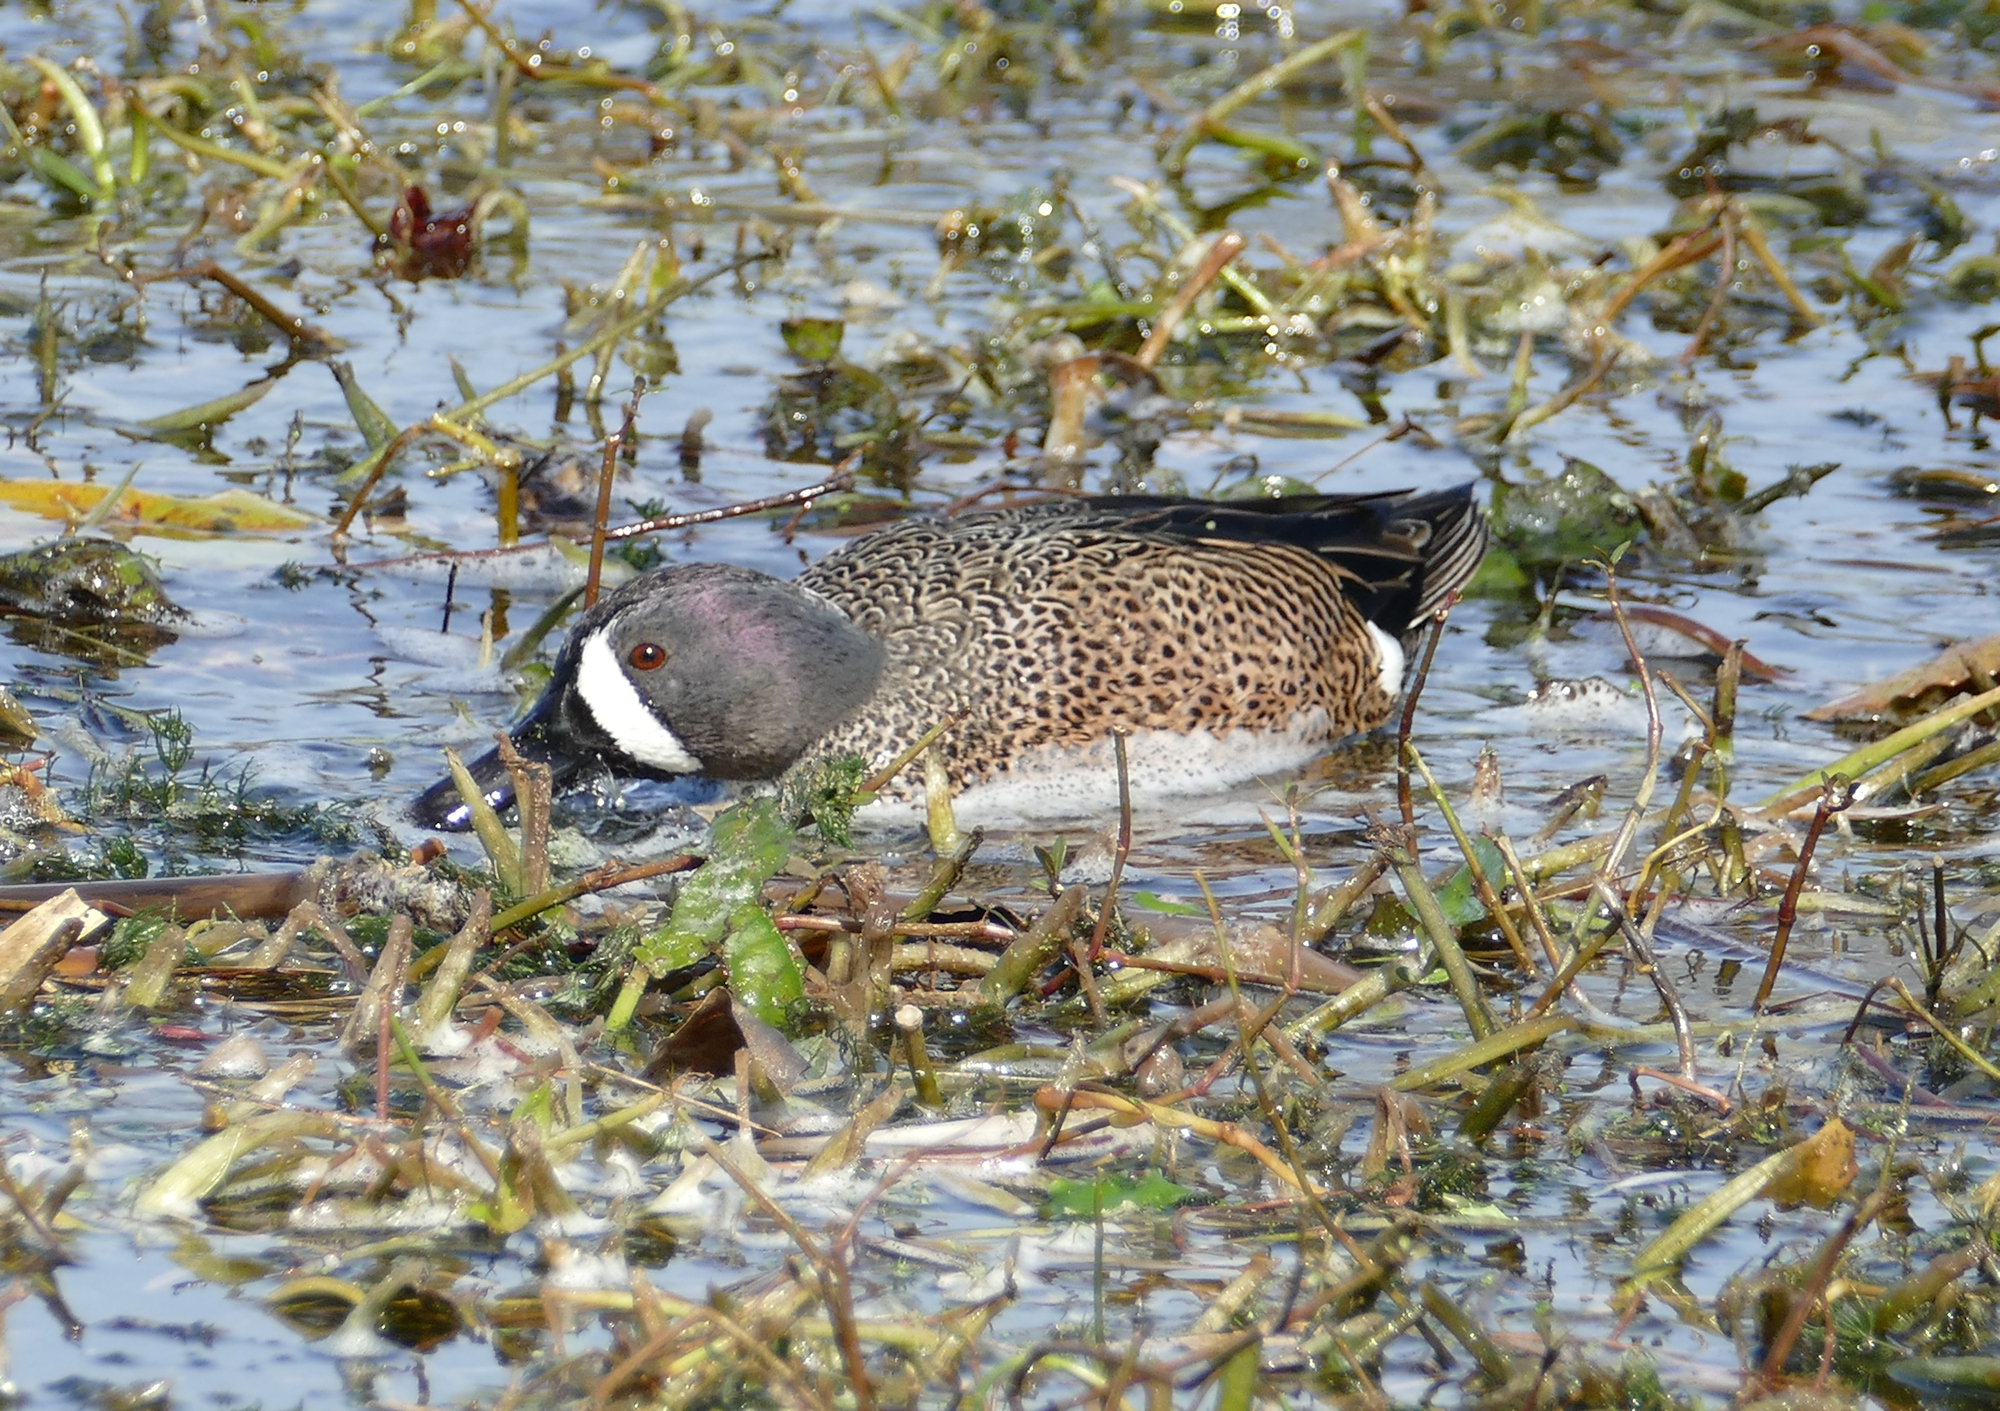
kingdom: Animalia
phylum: Chordata
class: Aves
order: Anseriformes
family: Anatidae
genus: Spatula
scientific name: Spatula discors
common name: Blue-winged teal
